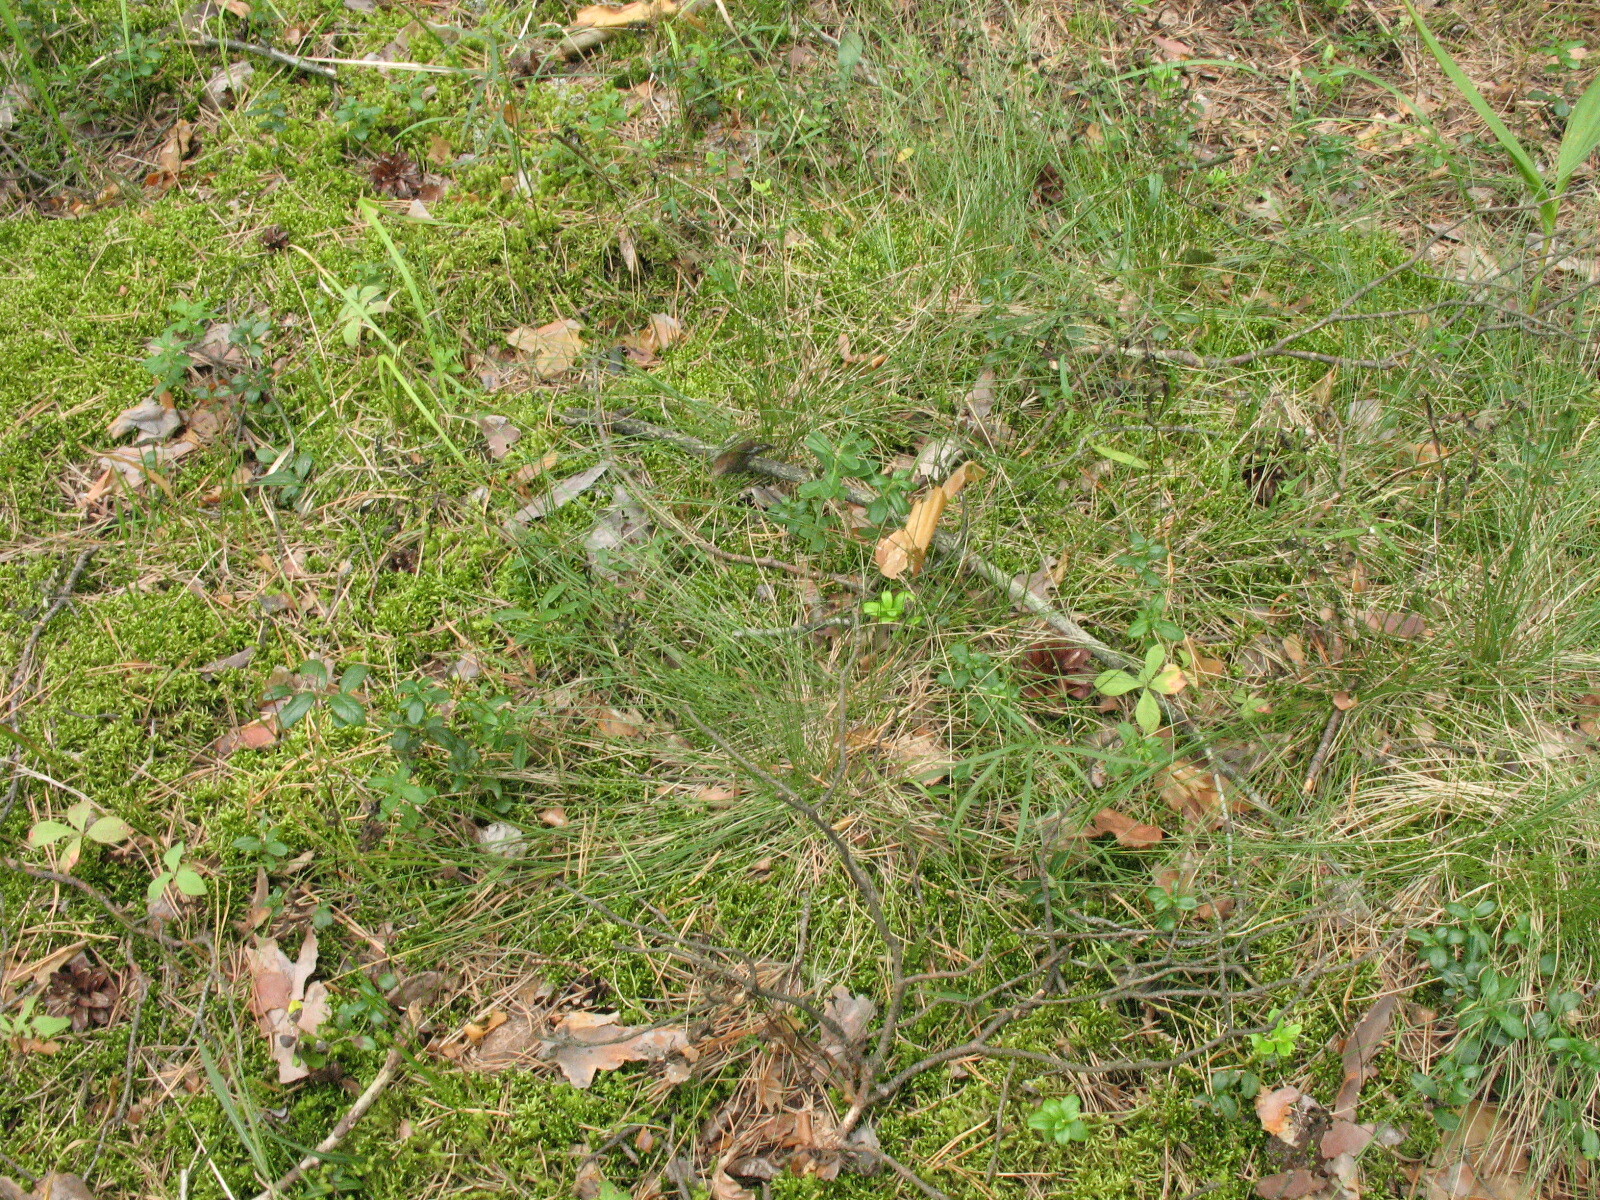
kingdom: Plantae
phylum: Tracheophyta
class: Liliopsida
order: Poales
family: Poaceae
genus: Nardus
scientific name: Nardus stricta
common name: Mat-grass
